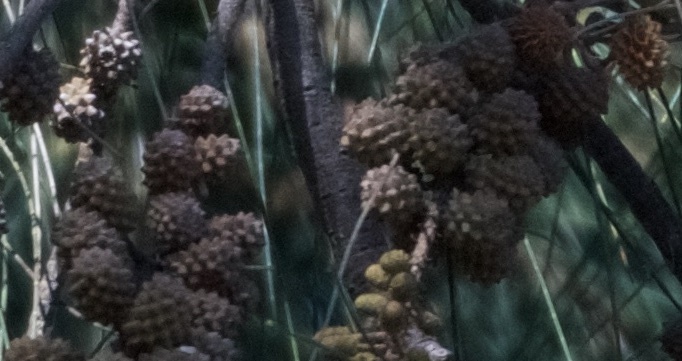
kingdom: Plantae
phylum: Tracheophyta
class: Magnoliopsida
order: Malpighiales
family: Salicaceae
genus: Populus
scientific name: Populus fremontii
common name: Fremont's cottonwood
